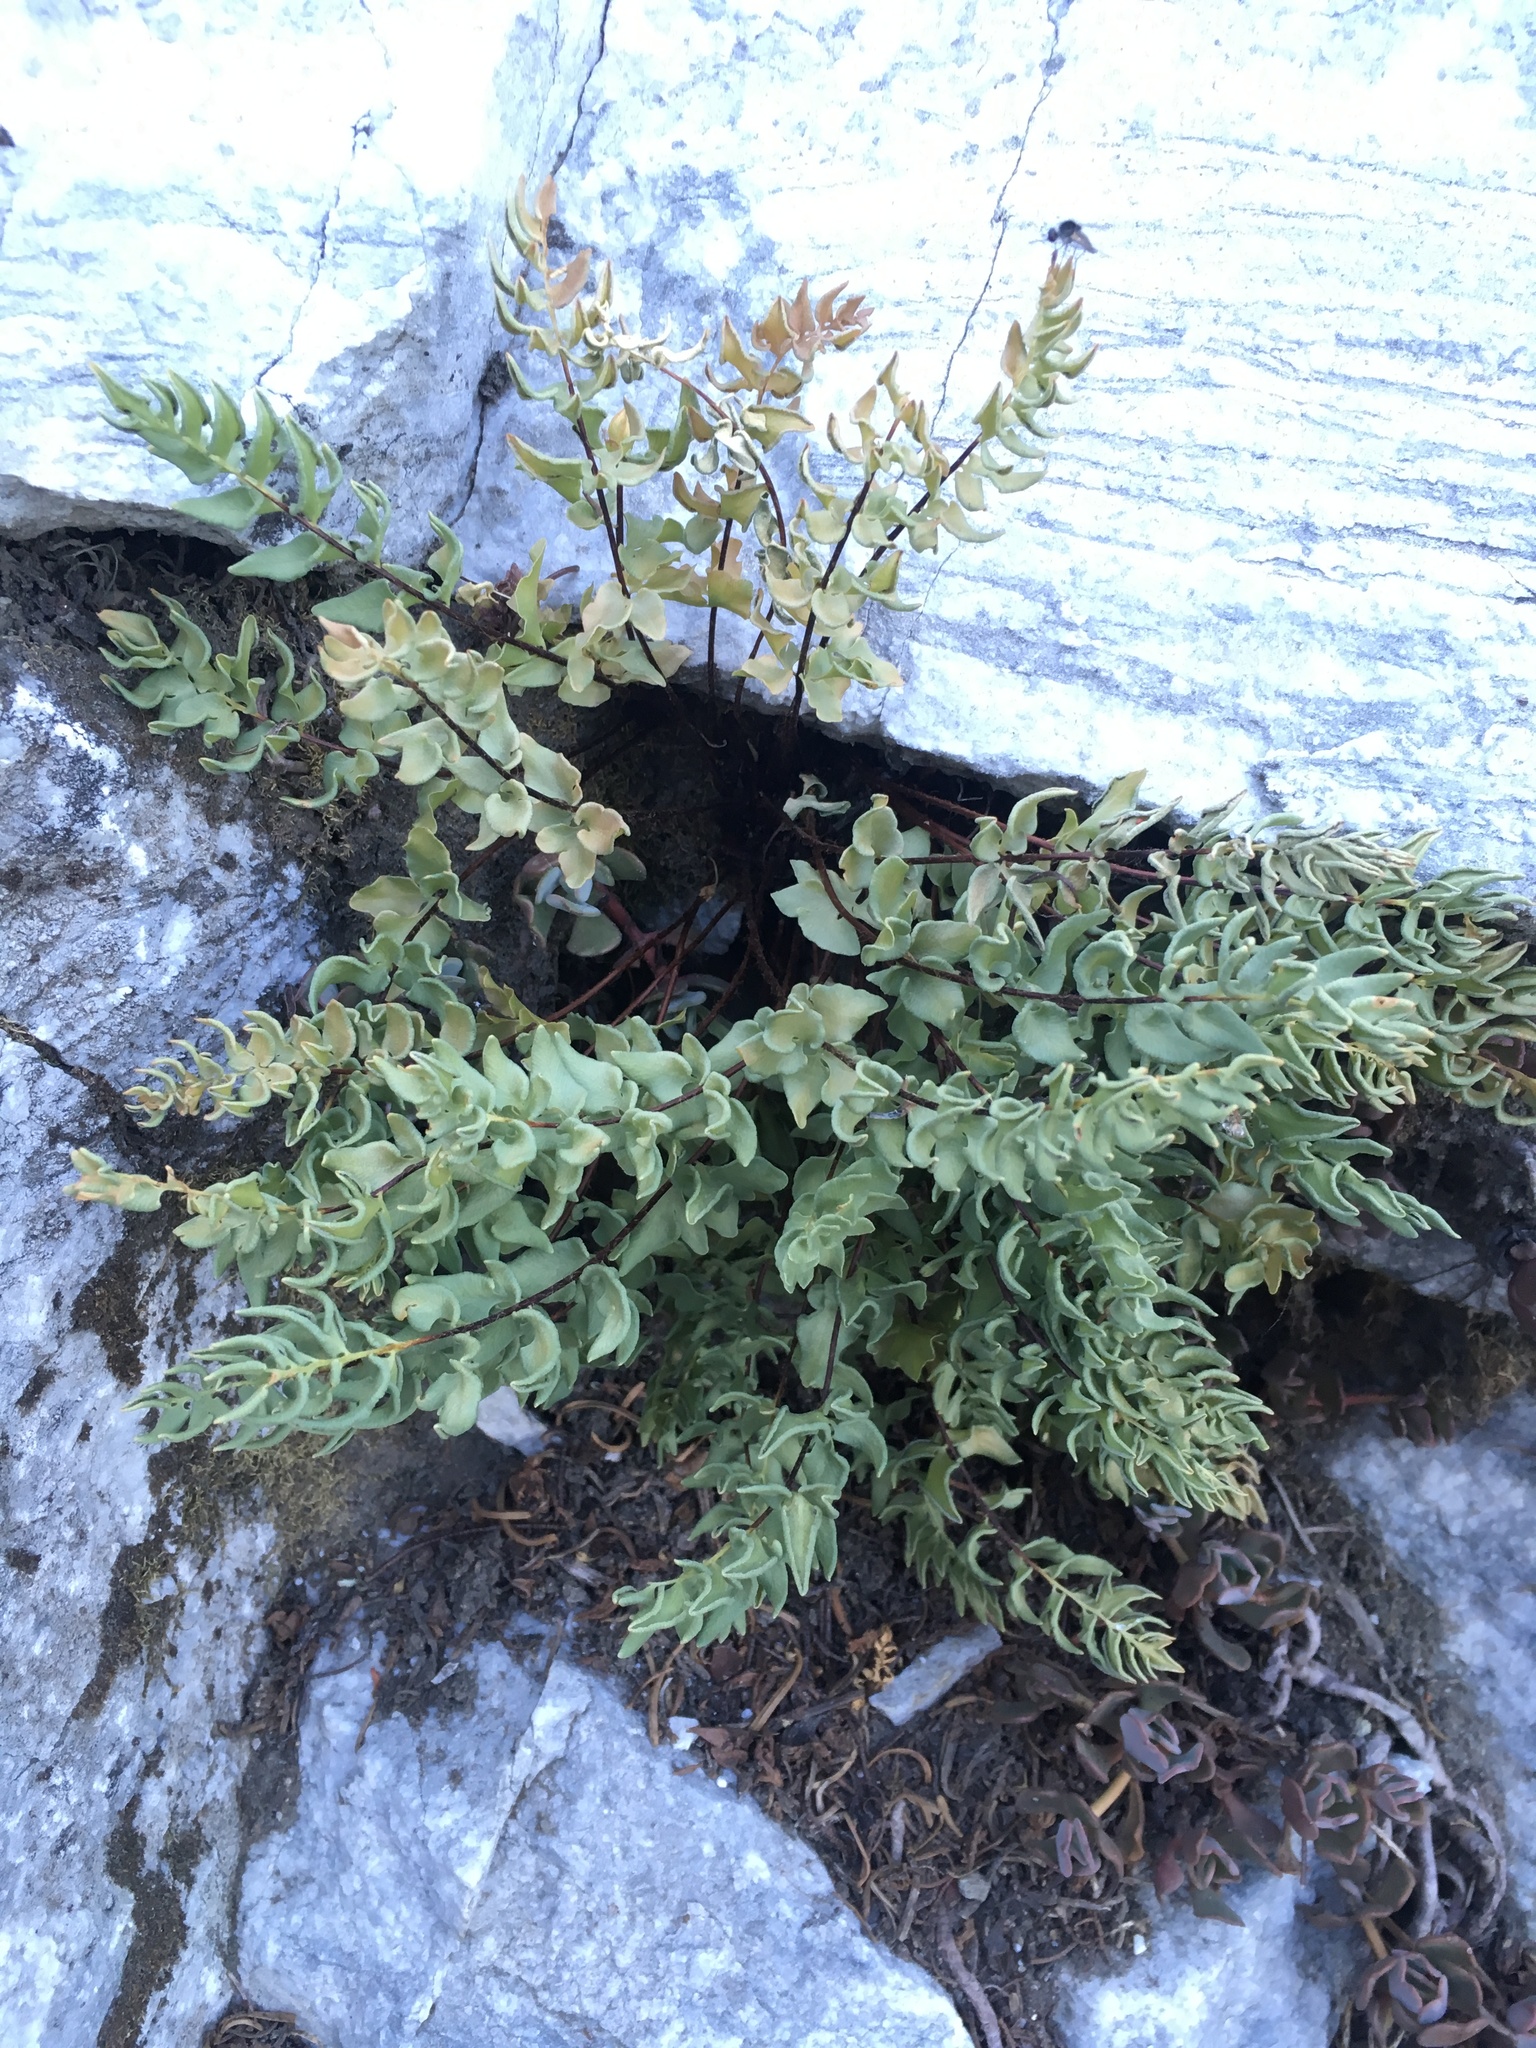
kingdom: Plantae
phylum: Tracheophyta
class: Polypodiopsida
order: Polypodiales
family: Pteridaceae
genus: Pellaea
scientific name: Pellaea breweri
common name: Brewer's cliffbrake
